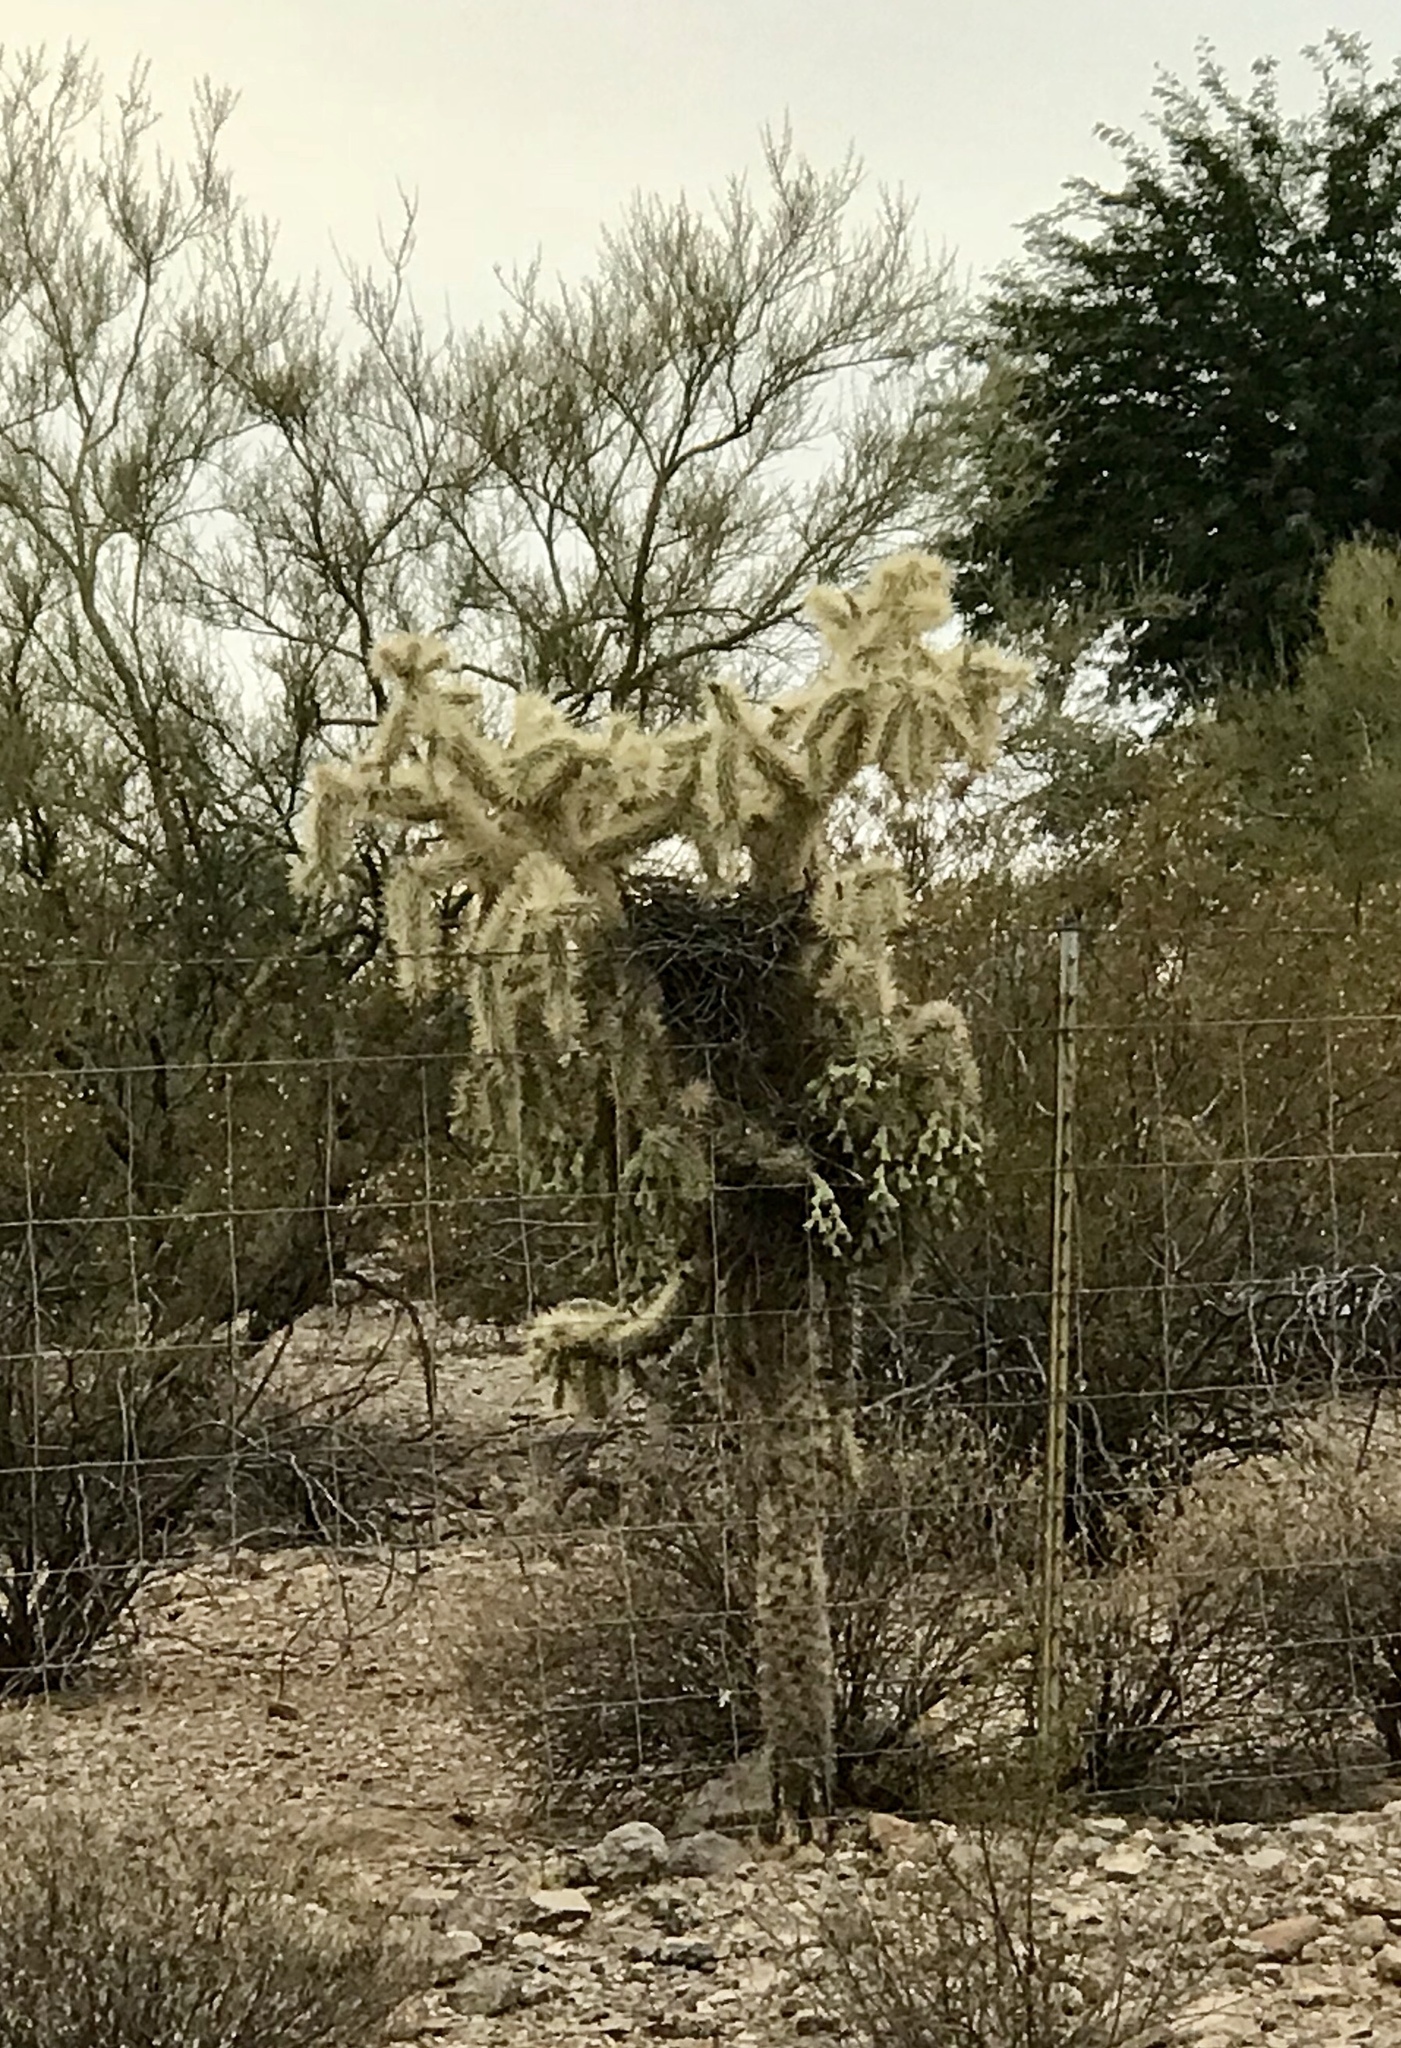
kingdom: Plantae
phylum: Tracheophyta
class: Magnoliopsida
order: Caryophyllales
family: Cactaceae
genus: Cylindropuntia
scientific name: Cylindropuntia fulgida
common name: Jumping cholla
